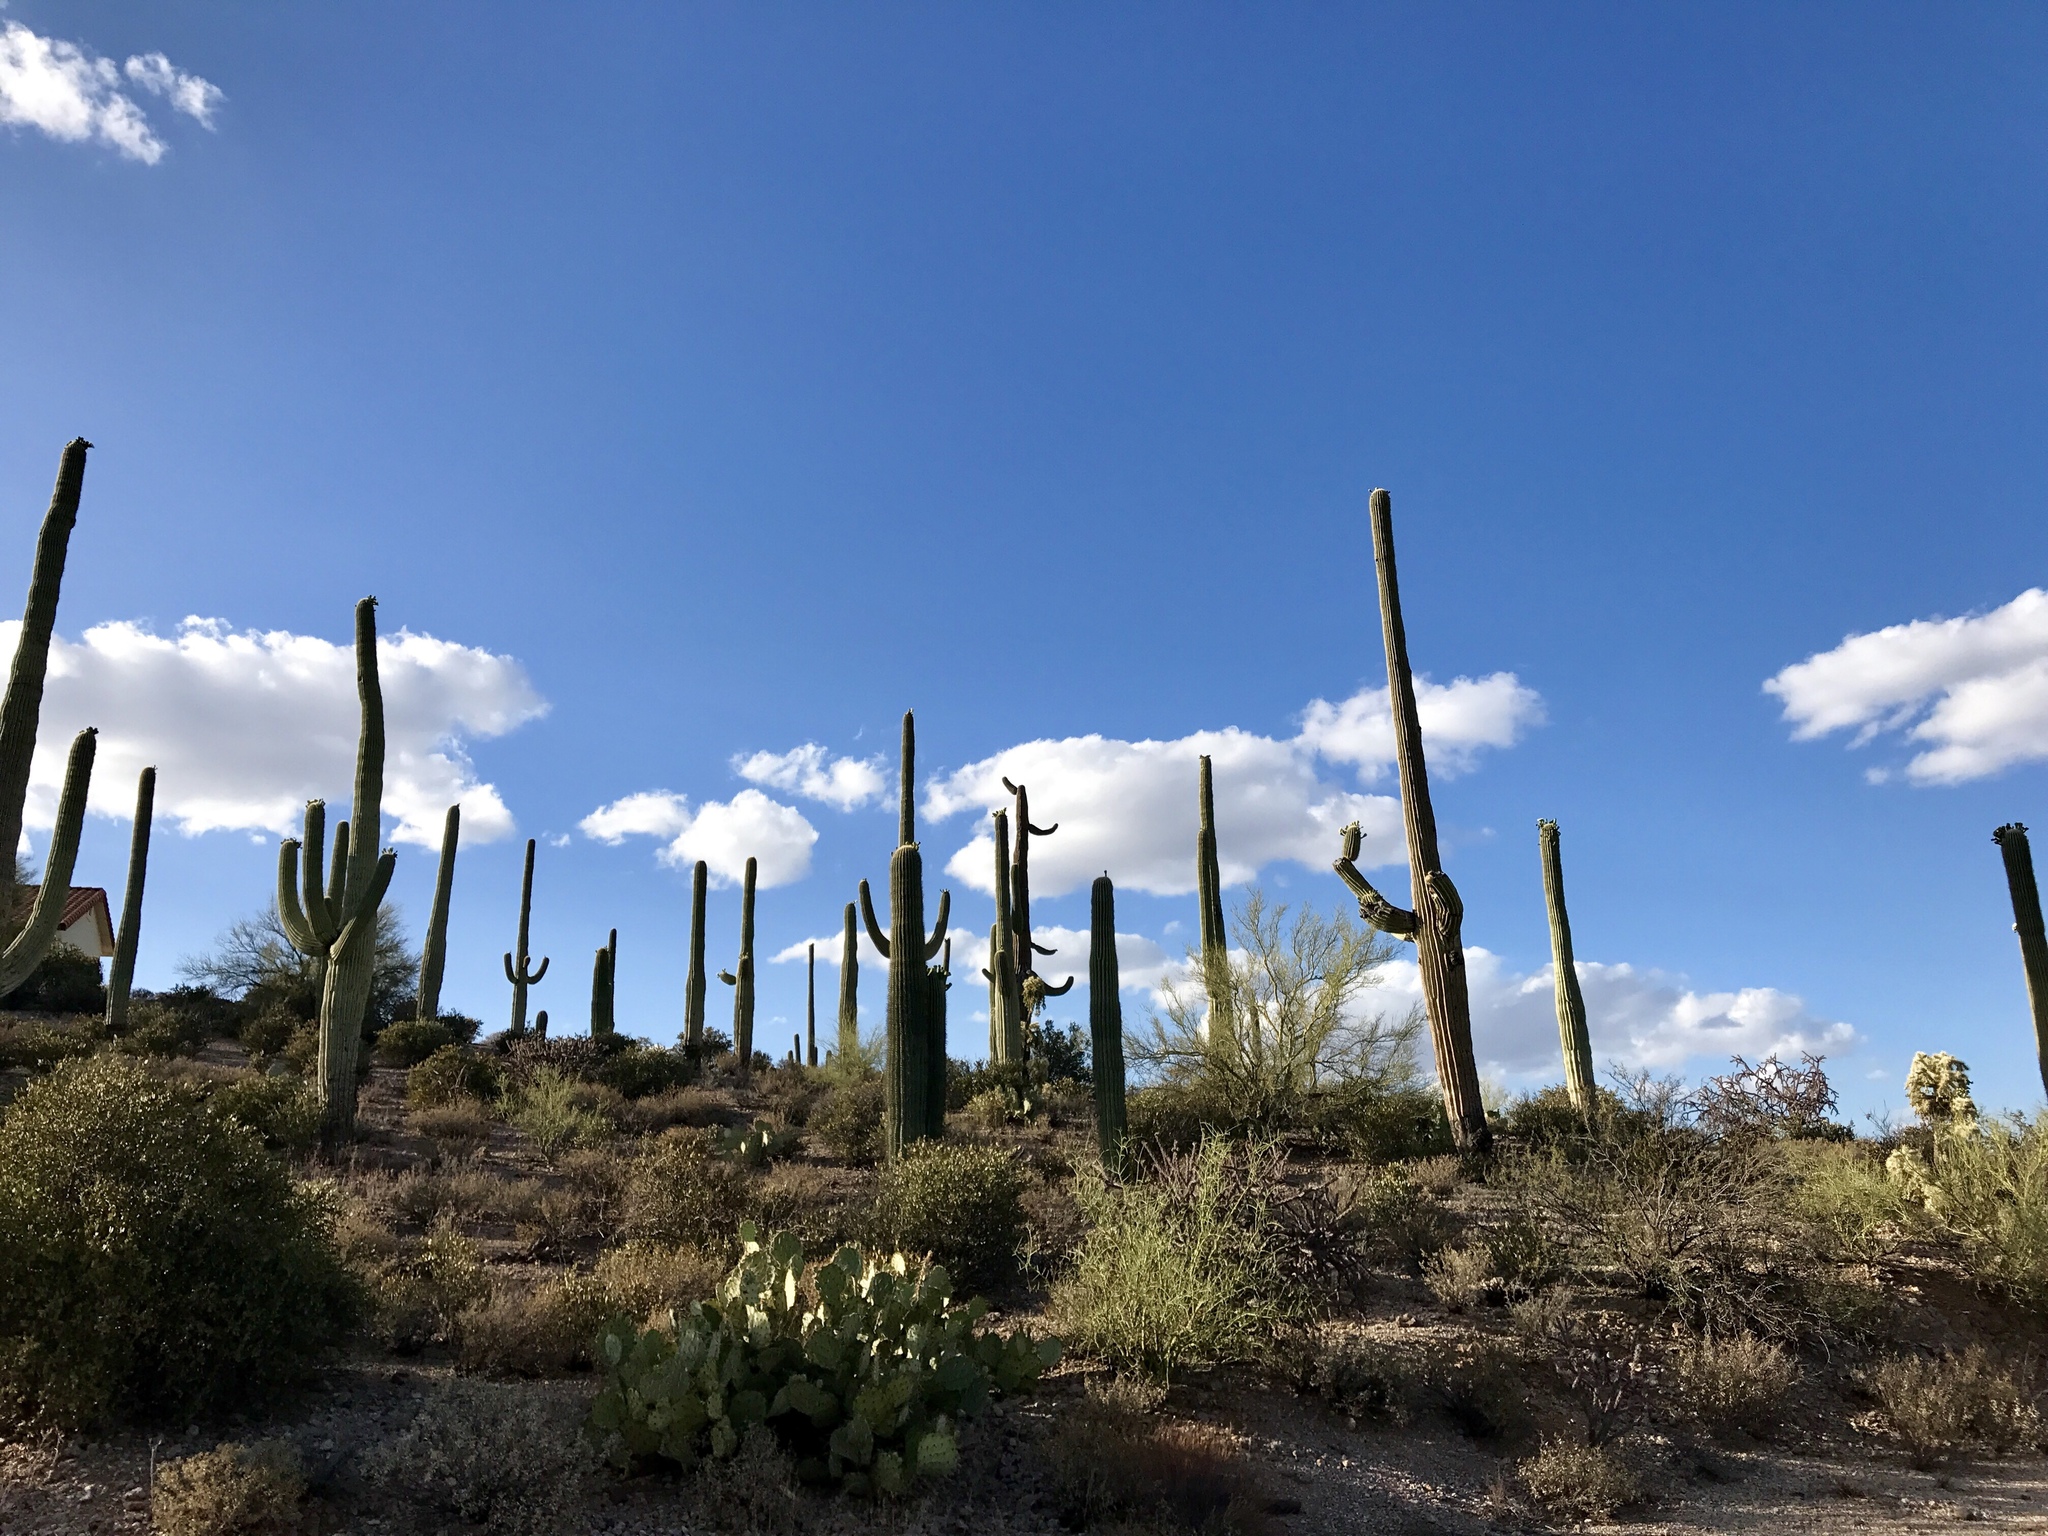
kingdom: Plantae
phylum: Tracheophyta
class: Magnoliopsida
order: Caryophyllales
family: Cactaceae
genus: Carnegiea
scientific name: Carnegiea gigantea
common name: Saguaro
